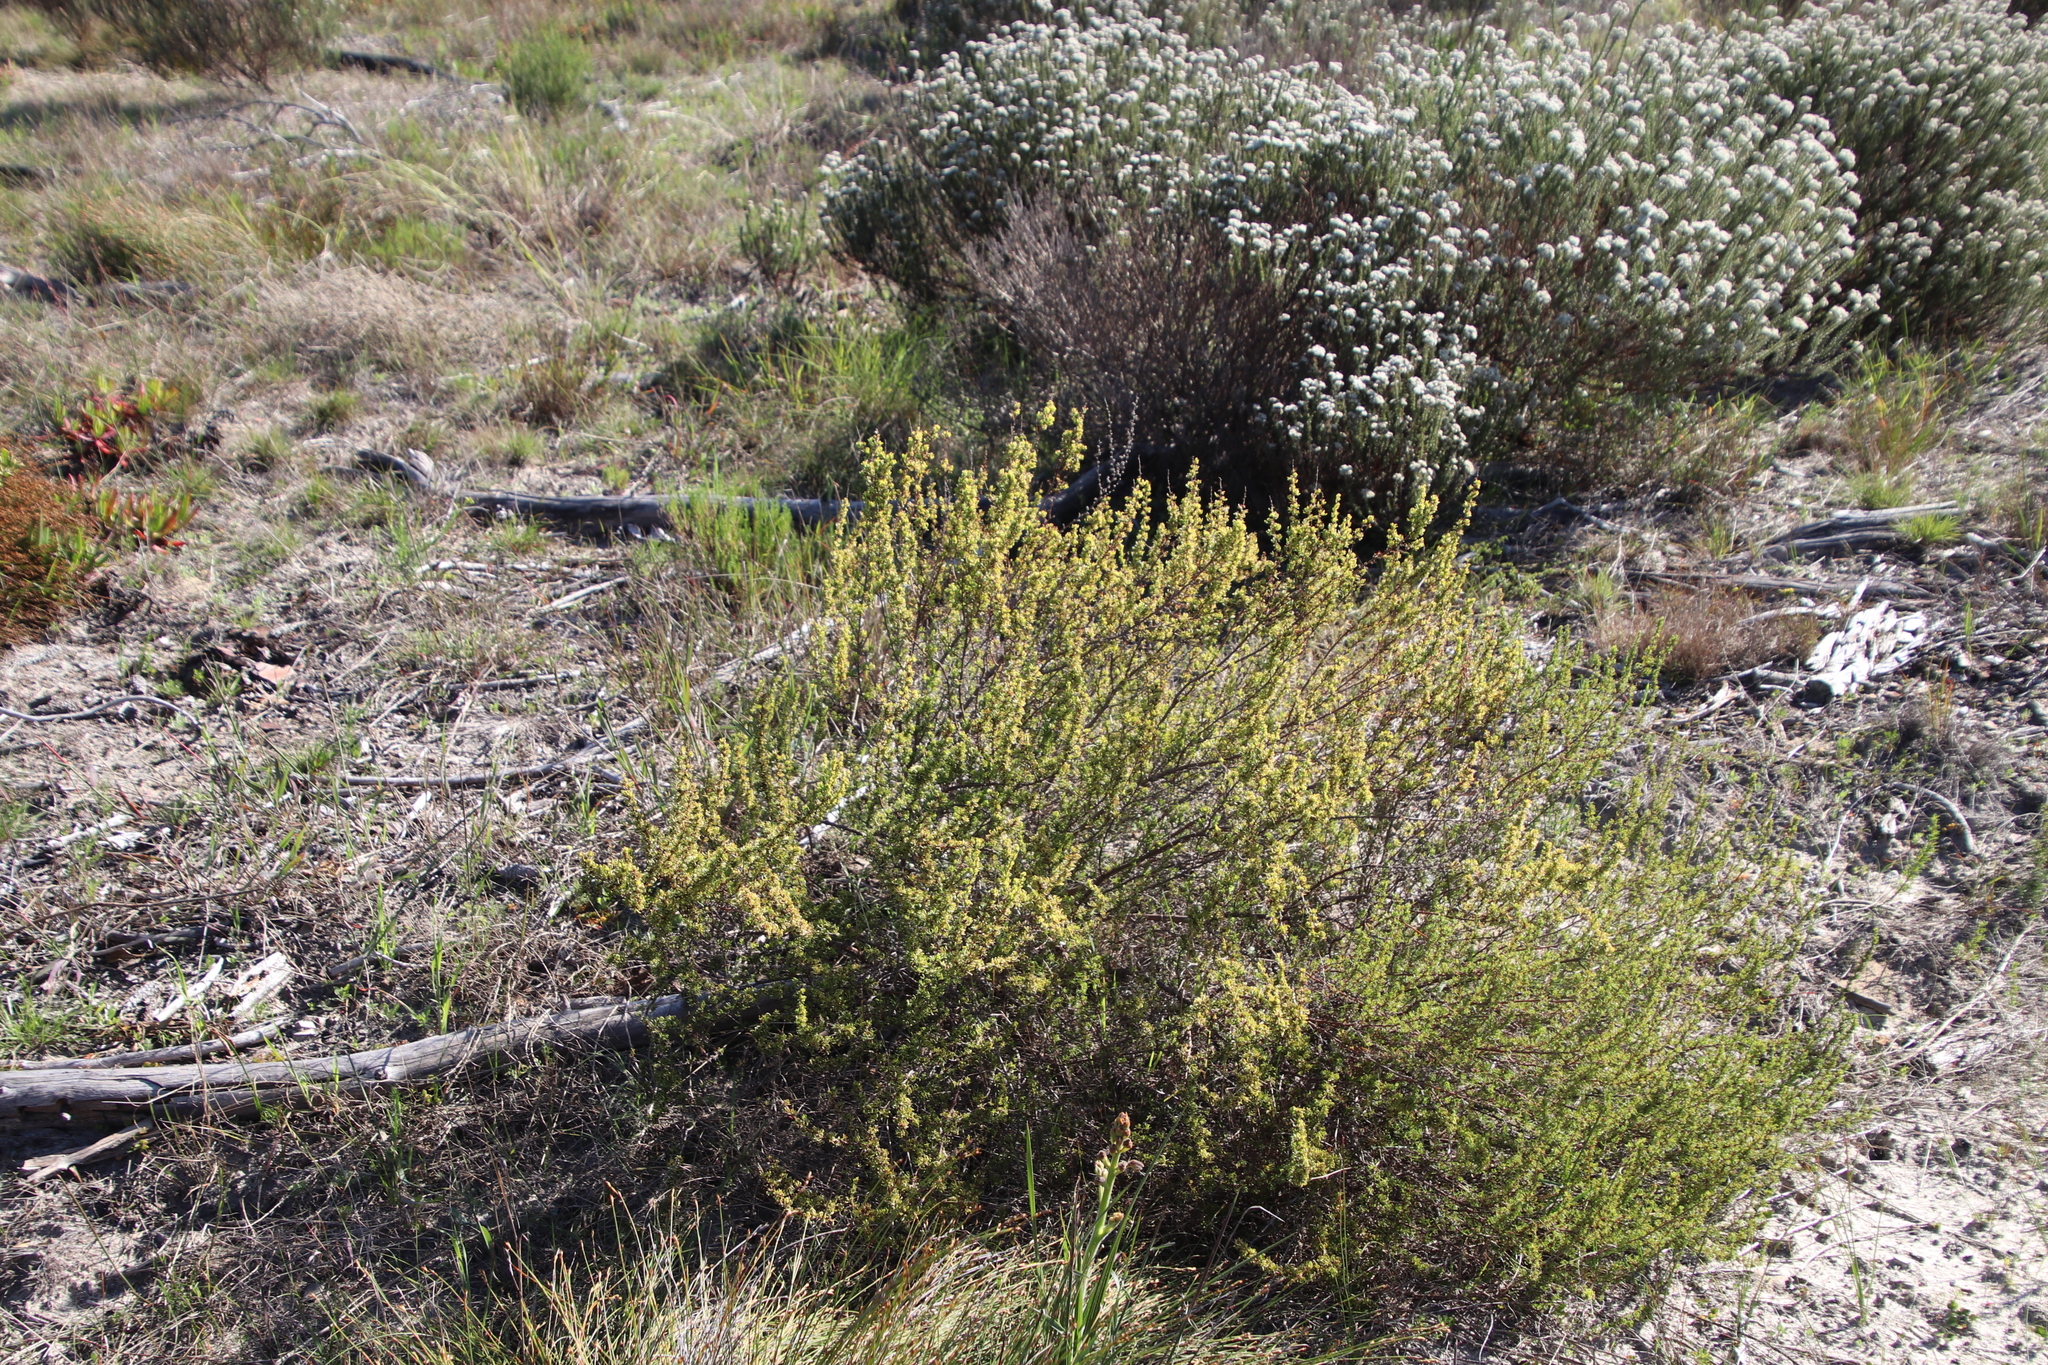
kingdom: Plantae
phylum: Tracheophyta
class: Magnoliopsida
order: Rosales
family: Rosaceae
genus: Cliffortia
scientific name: Cliffortia falcata
